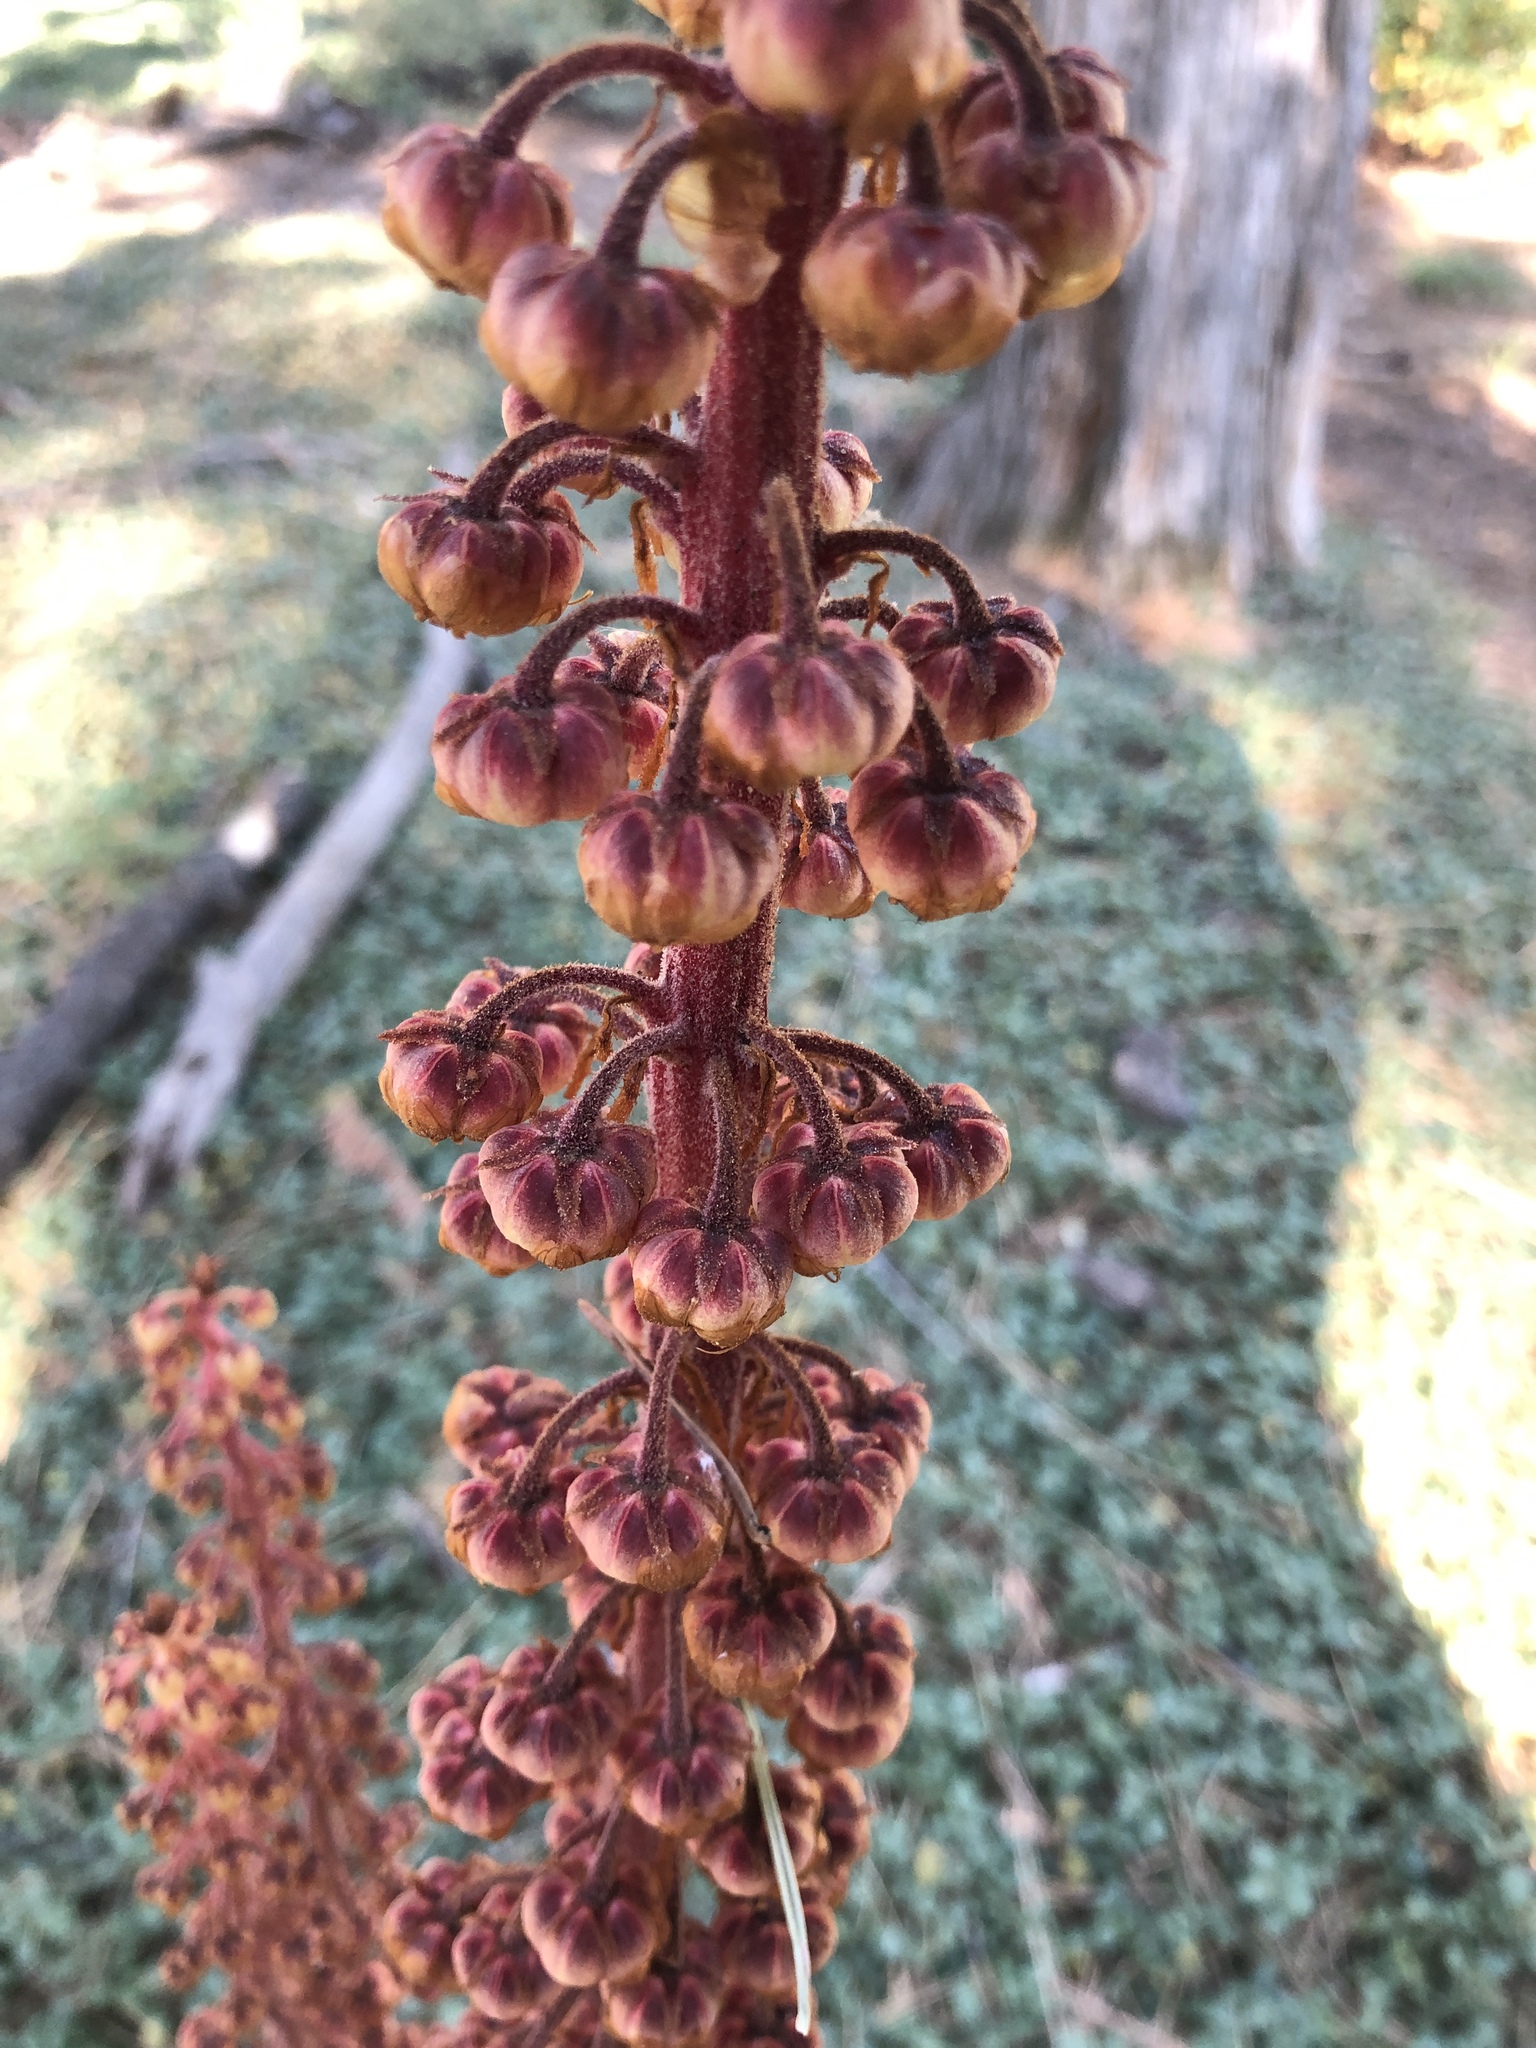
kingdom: Plantae
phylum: Tracheophyta
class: Magnoliopsida
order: Ericales
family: Ericaceae
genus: Pterospora
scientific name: Pterospora andromedea
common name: Giant bird's-nest
